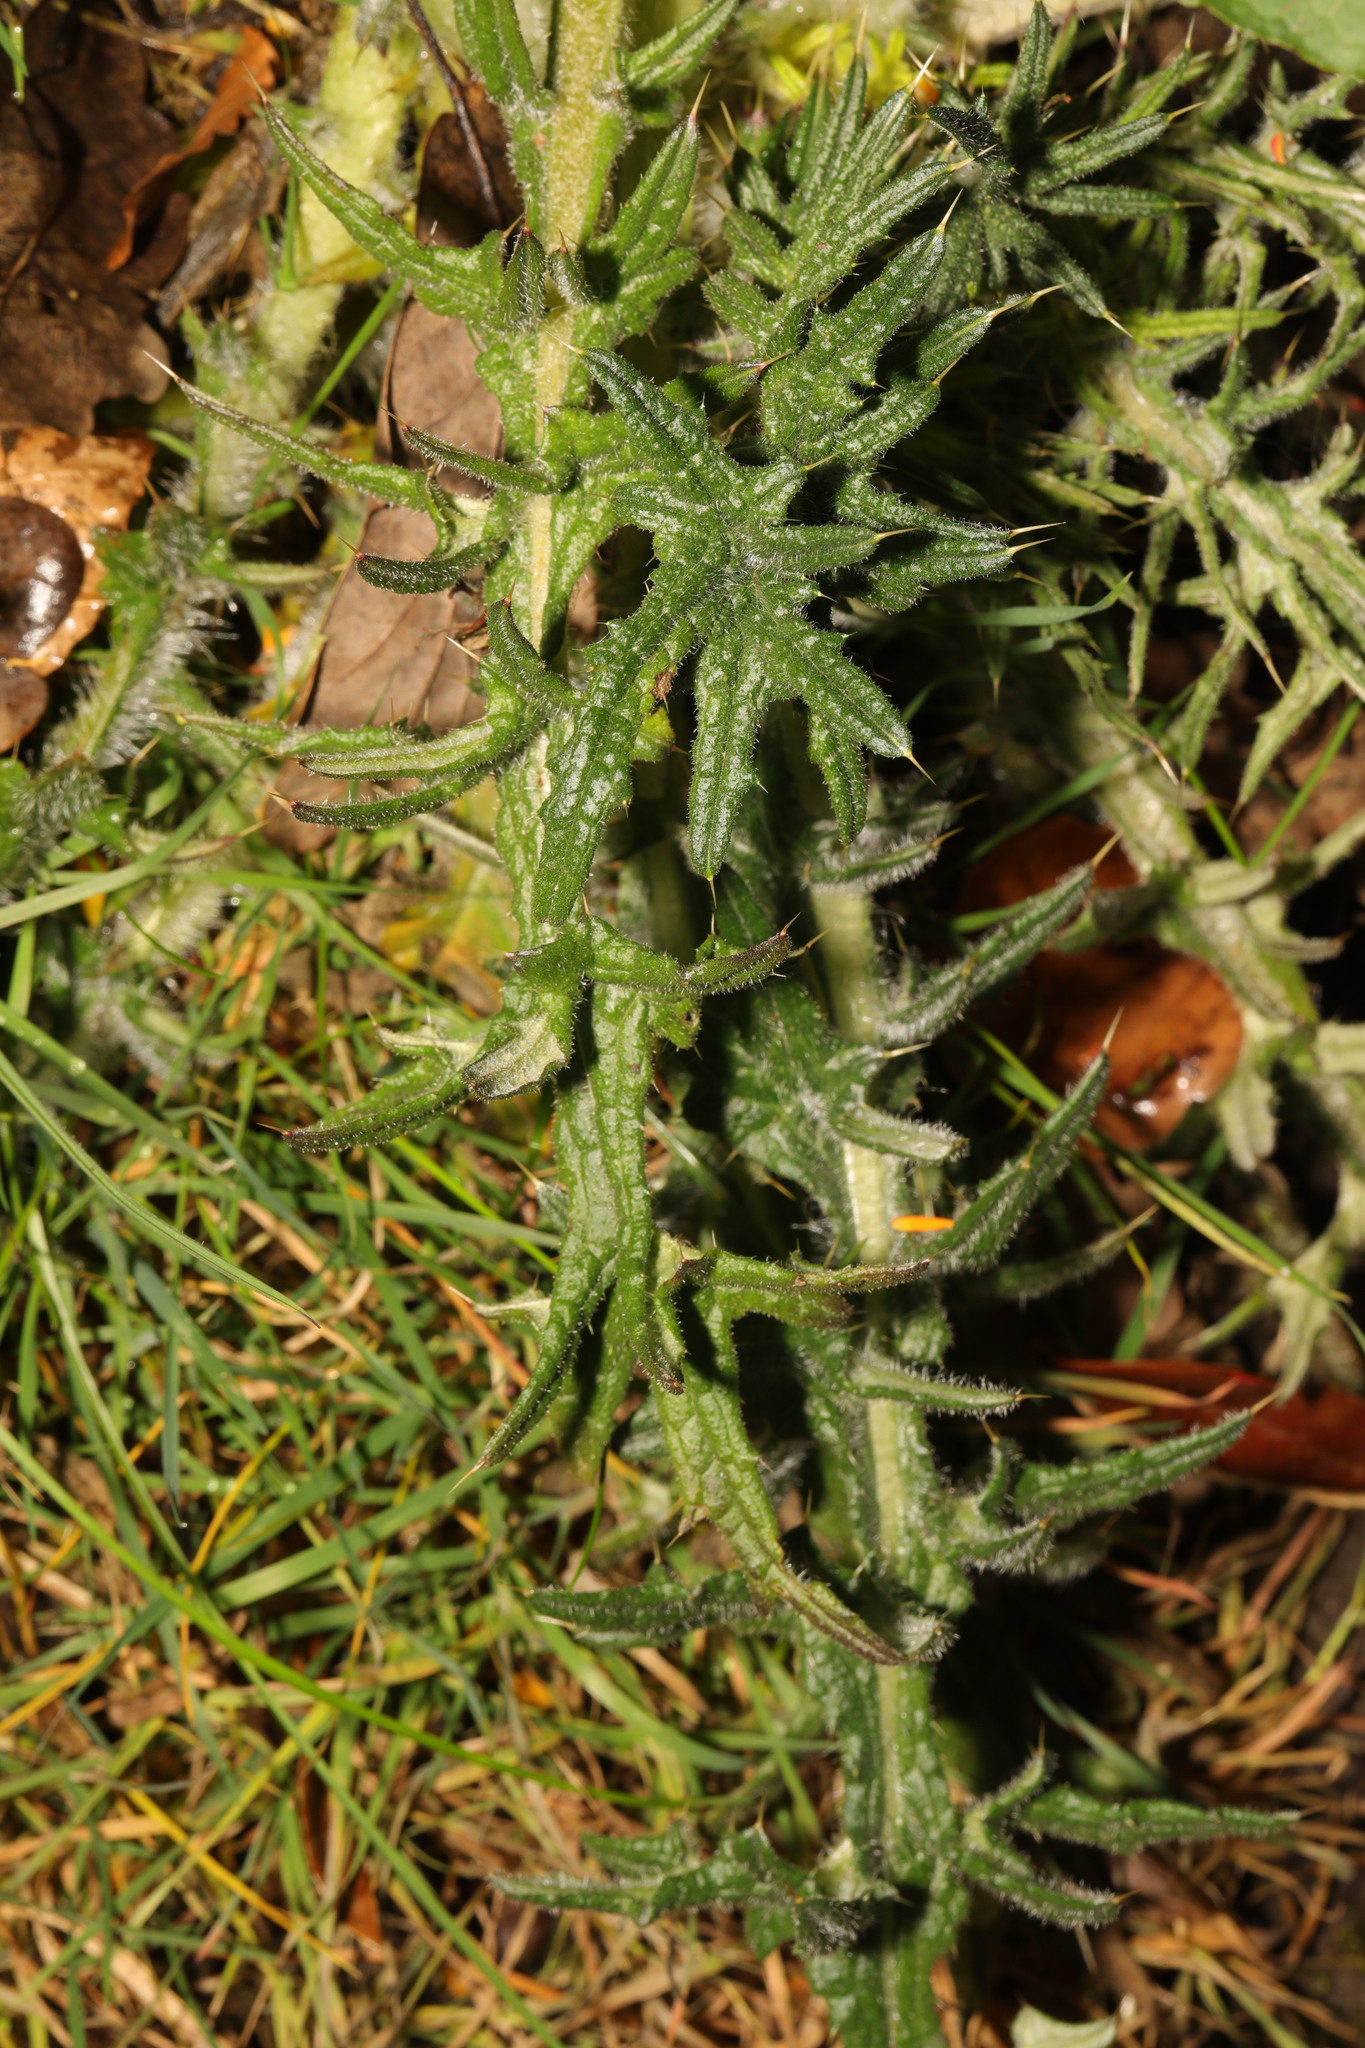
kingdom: Plantae
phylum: Tracheophyta
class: Magnoliopsida
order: Asterales
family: Asteraceae
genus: Cirsium
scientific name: Cirsium vulgare
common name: Bull thistle
